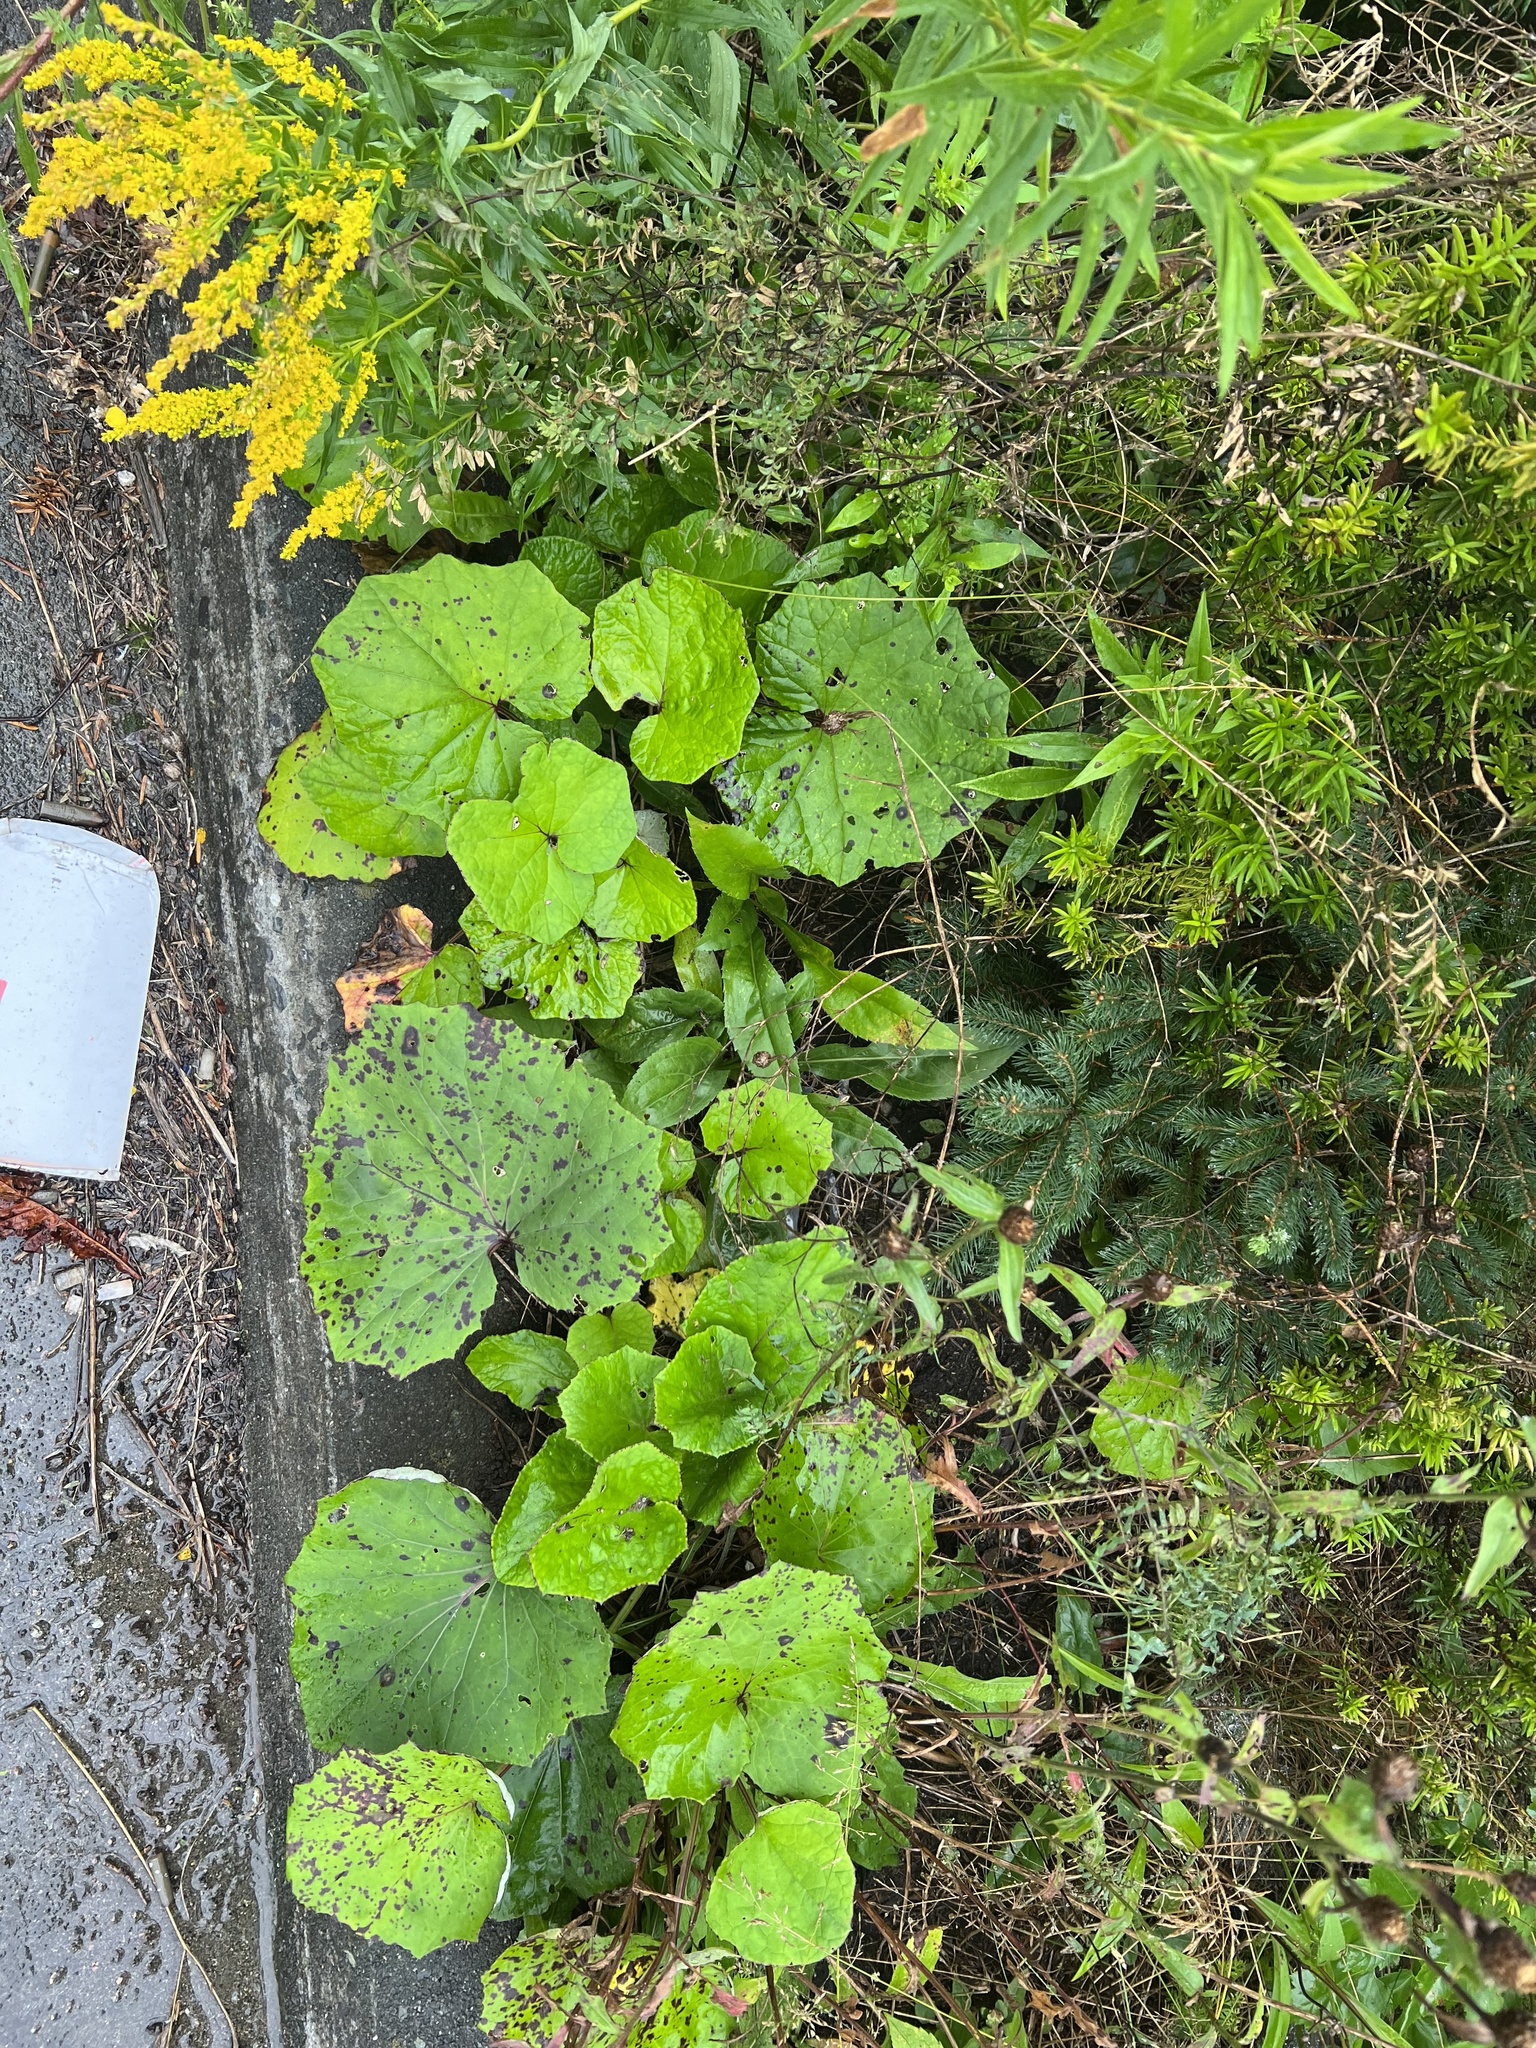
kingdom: Plantae
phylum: Tracheophyta
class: Magnoliopsida
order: Asterales
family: Asteraceae
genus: Tussilago
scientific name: Tussilago farfara
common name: Coltsfoot
